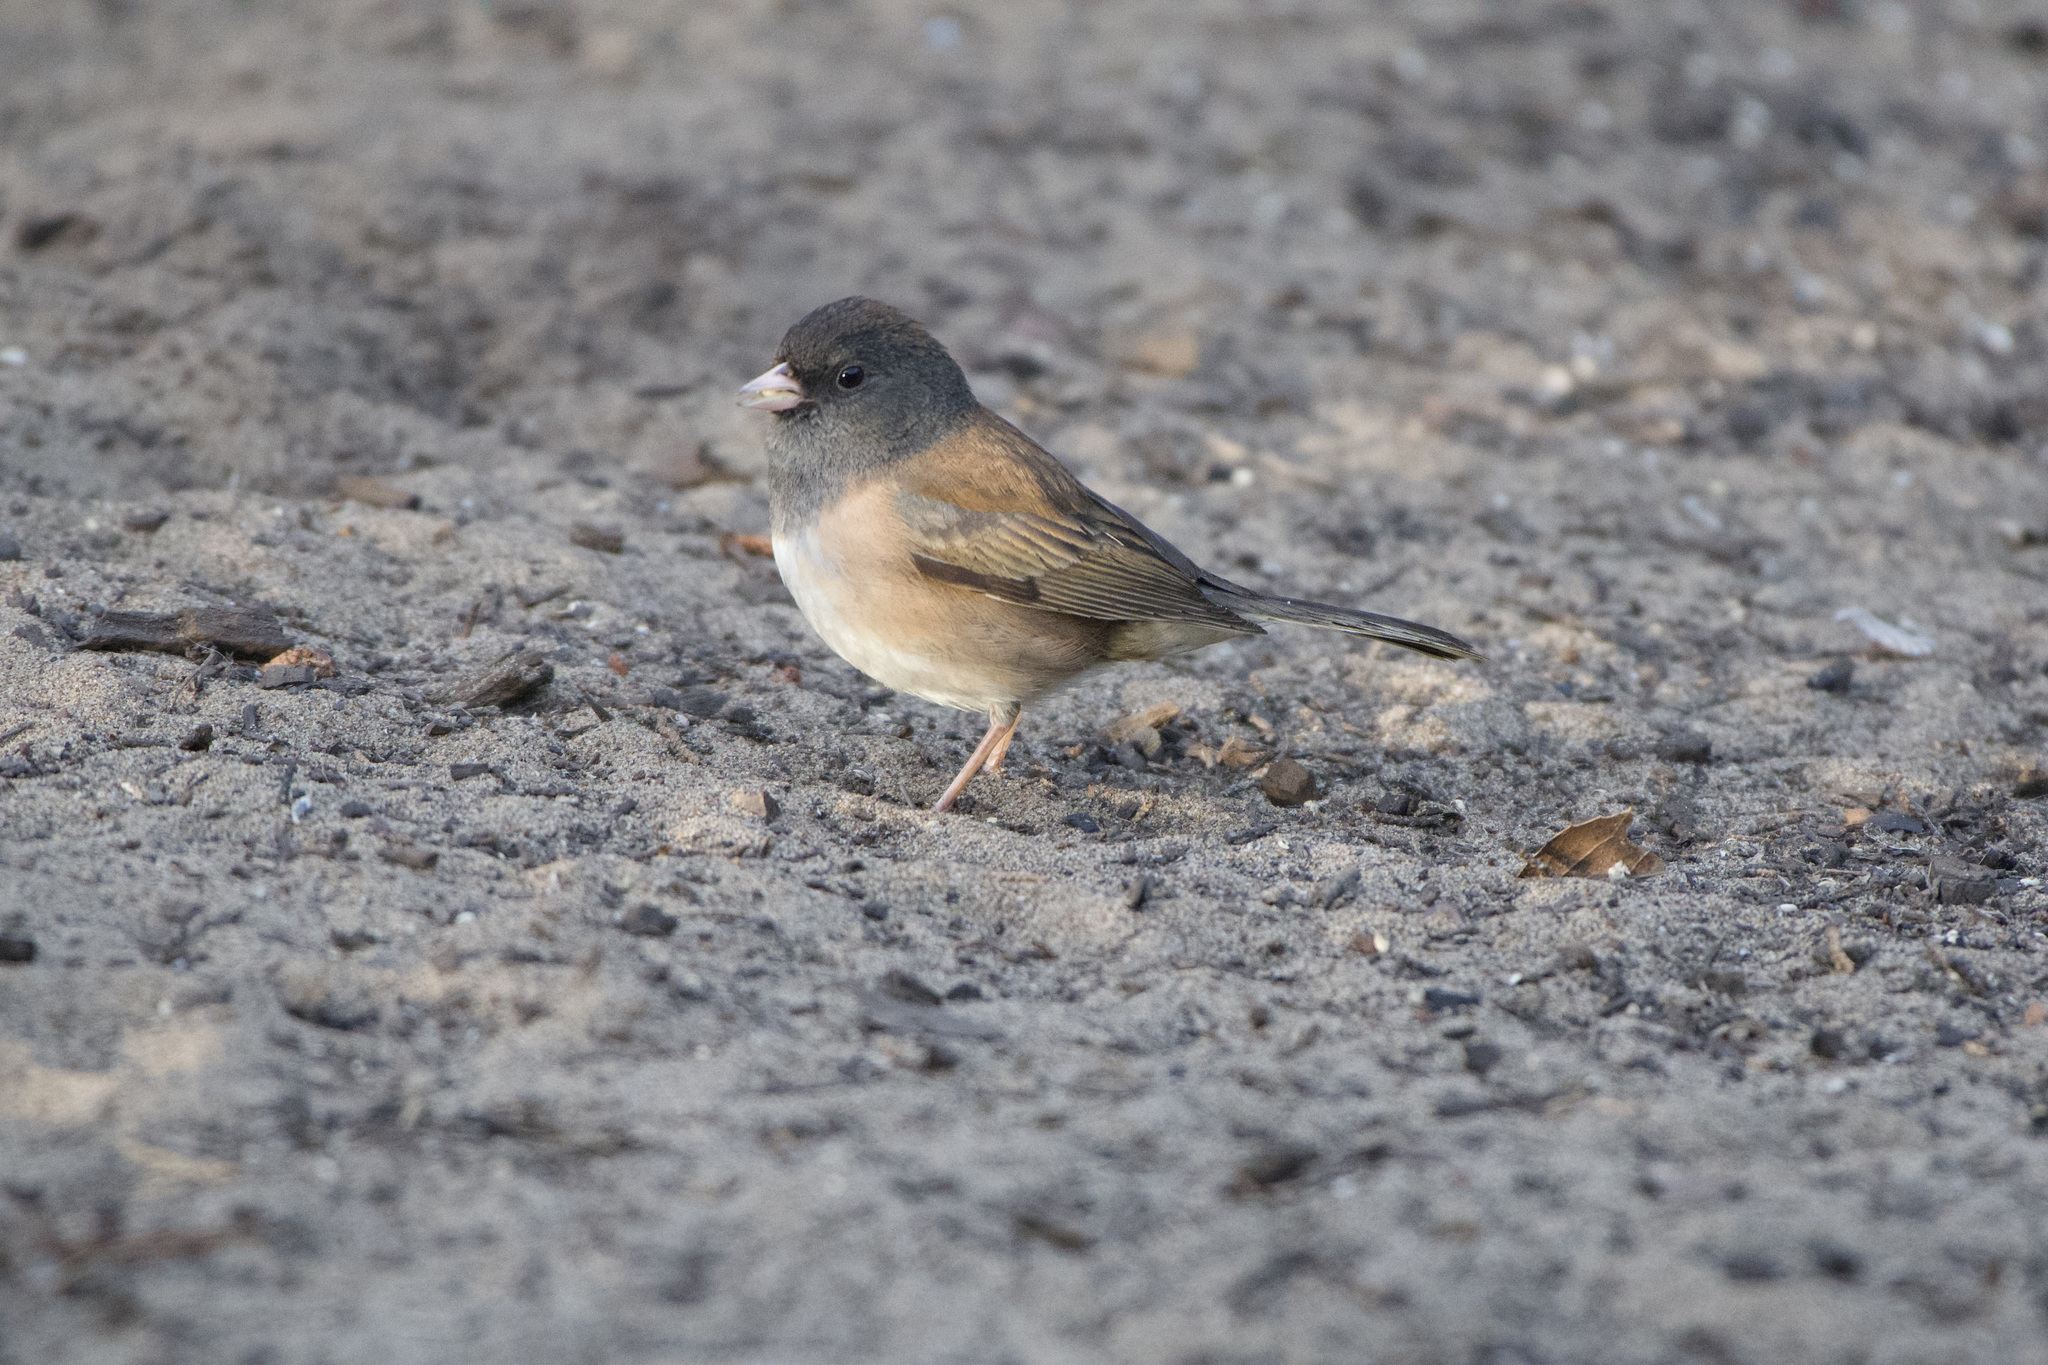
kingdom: Animalia
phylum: Chordata
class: Aves
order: Passeriformes
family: Passerellidae
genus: Junco
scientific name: Junco hyemalis
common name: Dark-eyed junco
